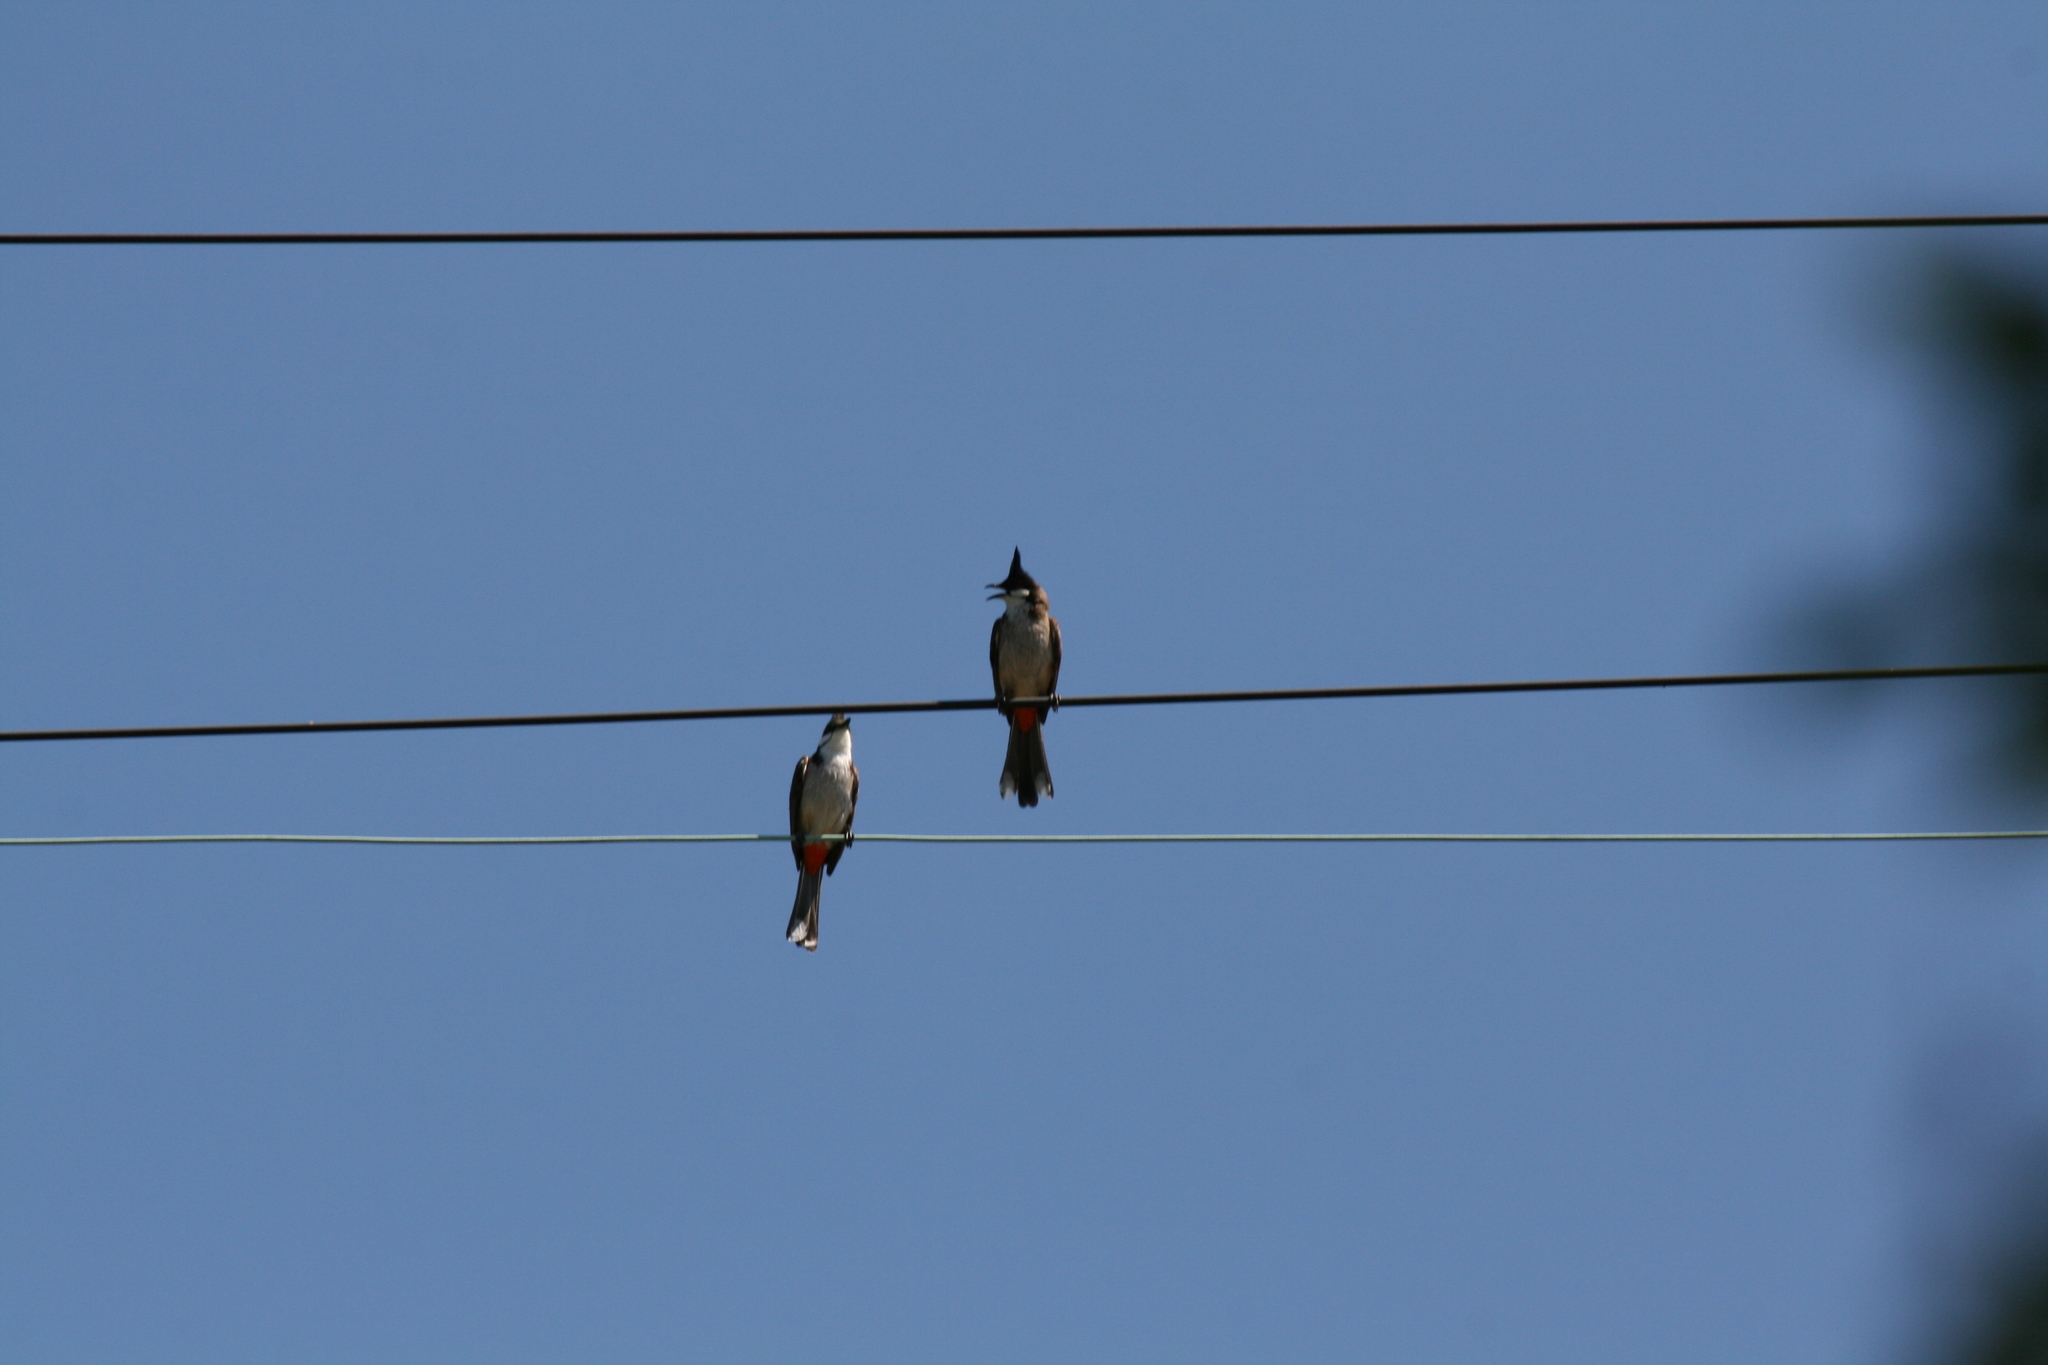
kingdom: Animalia
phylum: Chordata
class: Aves
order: Passeriformes
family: Pycnonotidae
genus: Pycnonotus
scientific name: Pycnonotus jocosus
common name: Red-whiskered bulbul
